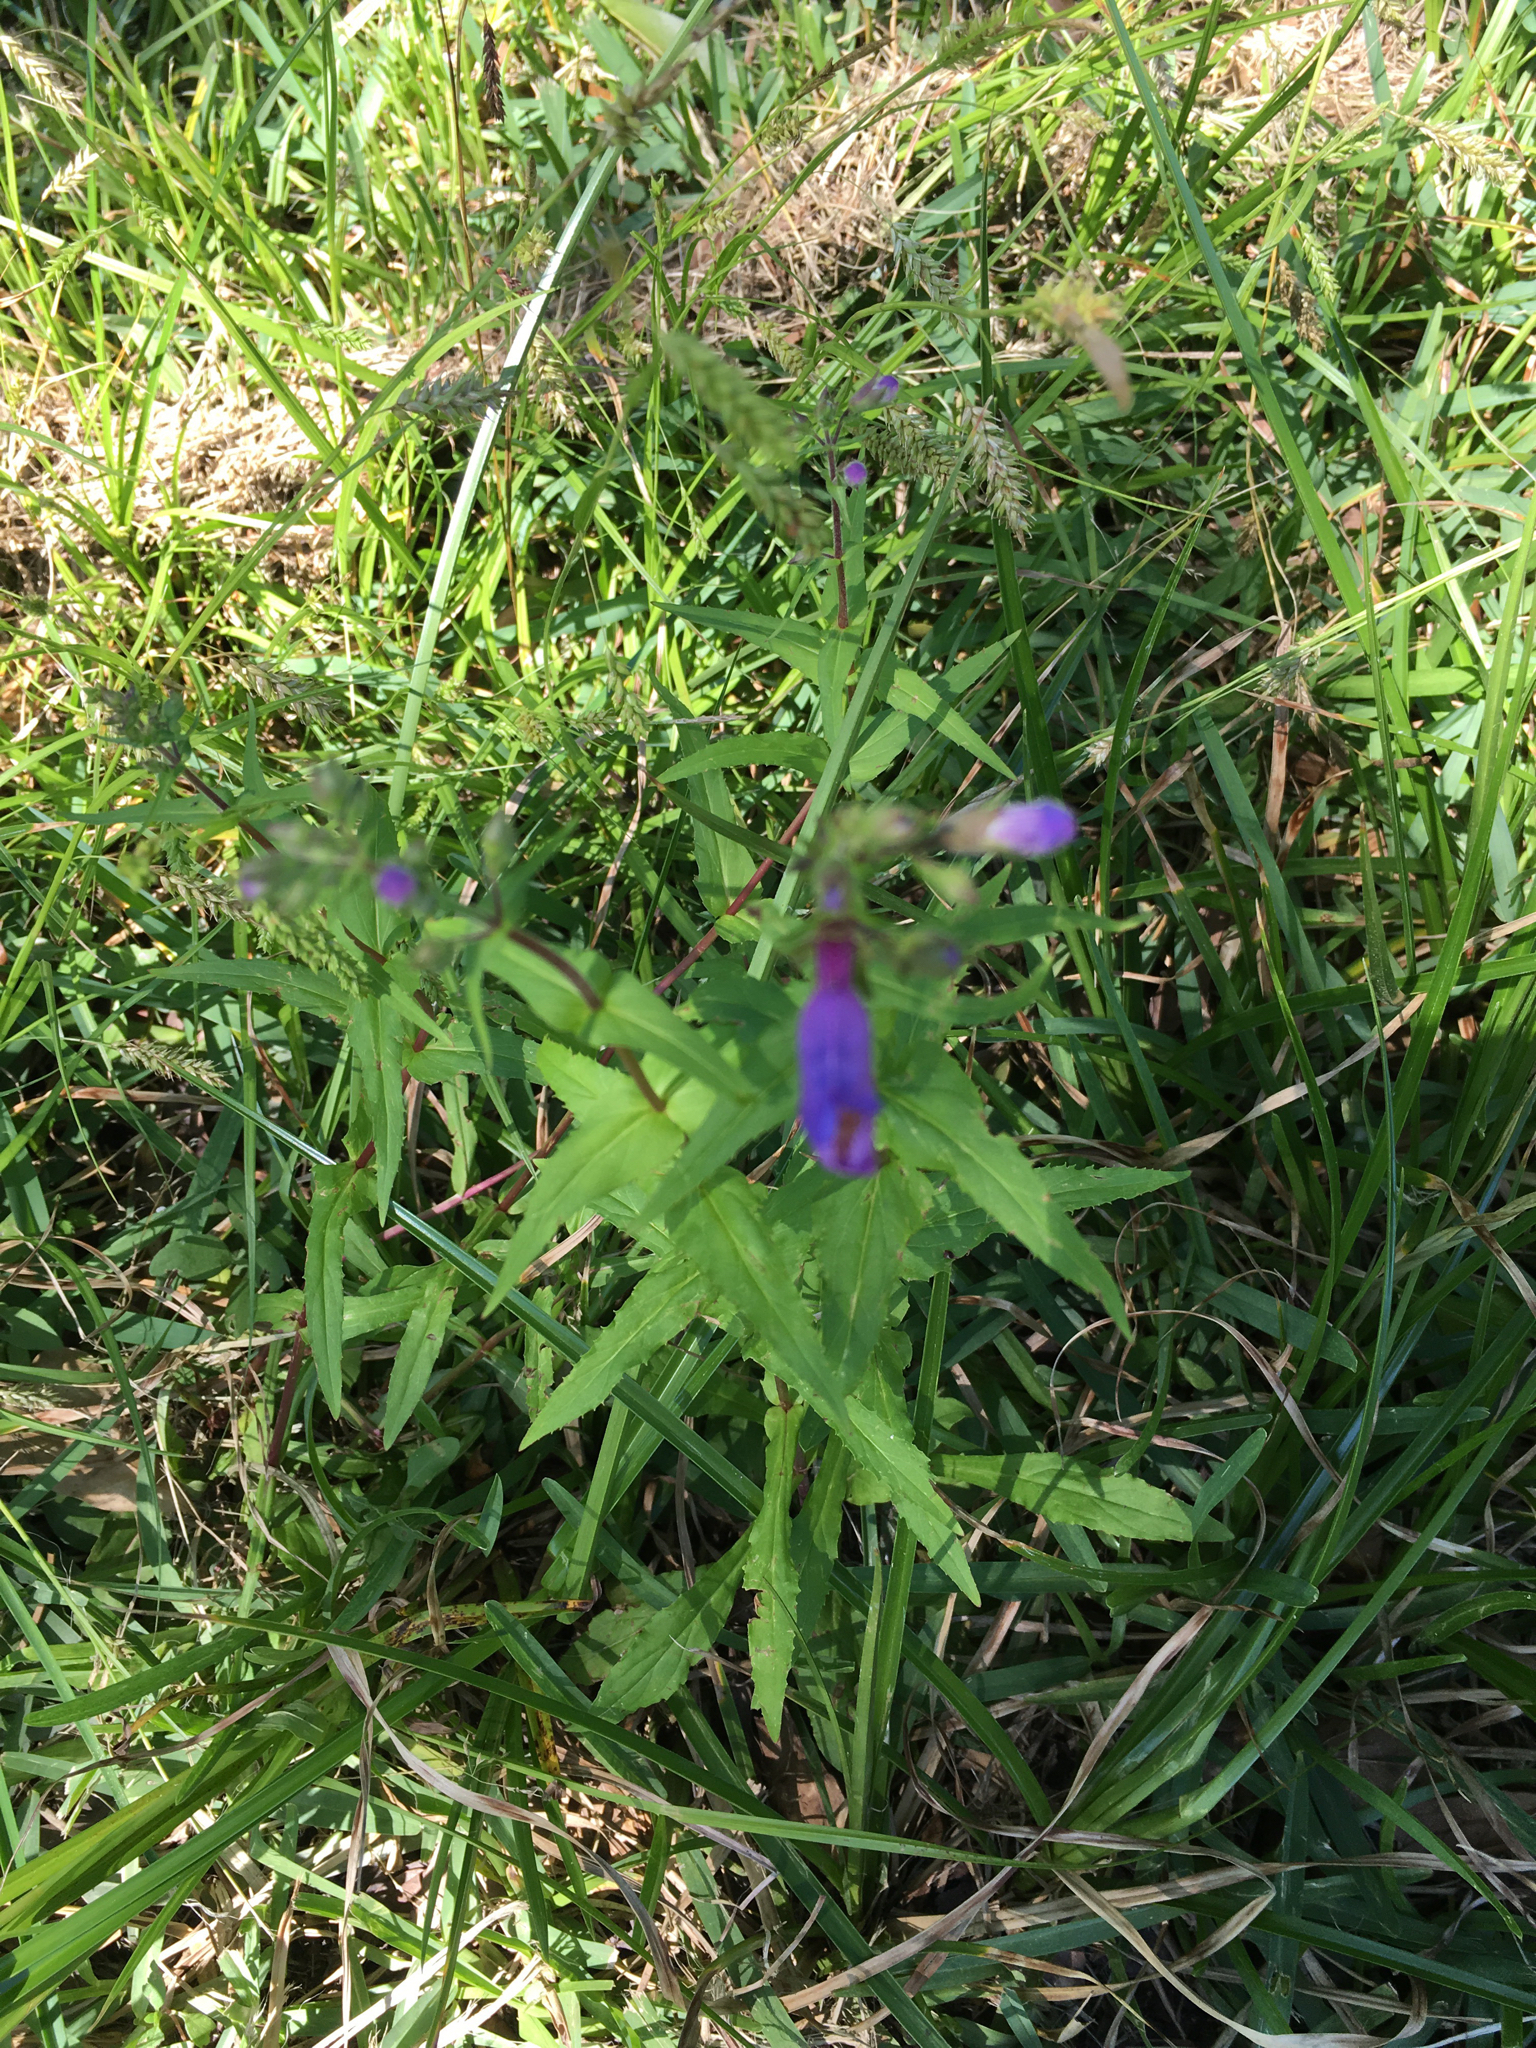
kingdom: Plantae
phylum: Tracheophyta
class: Magnoliopsida
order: Lamiales
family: Plantaginaceae
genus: Penstemon
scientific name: Penstemon tenuis
